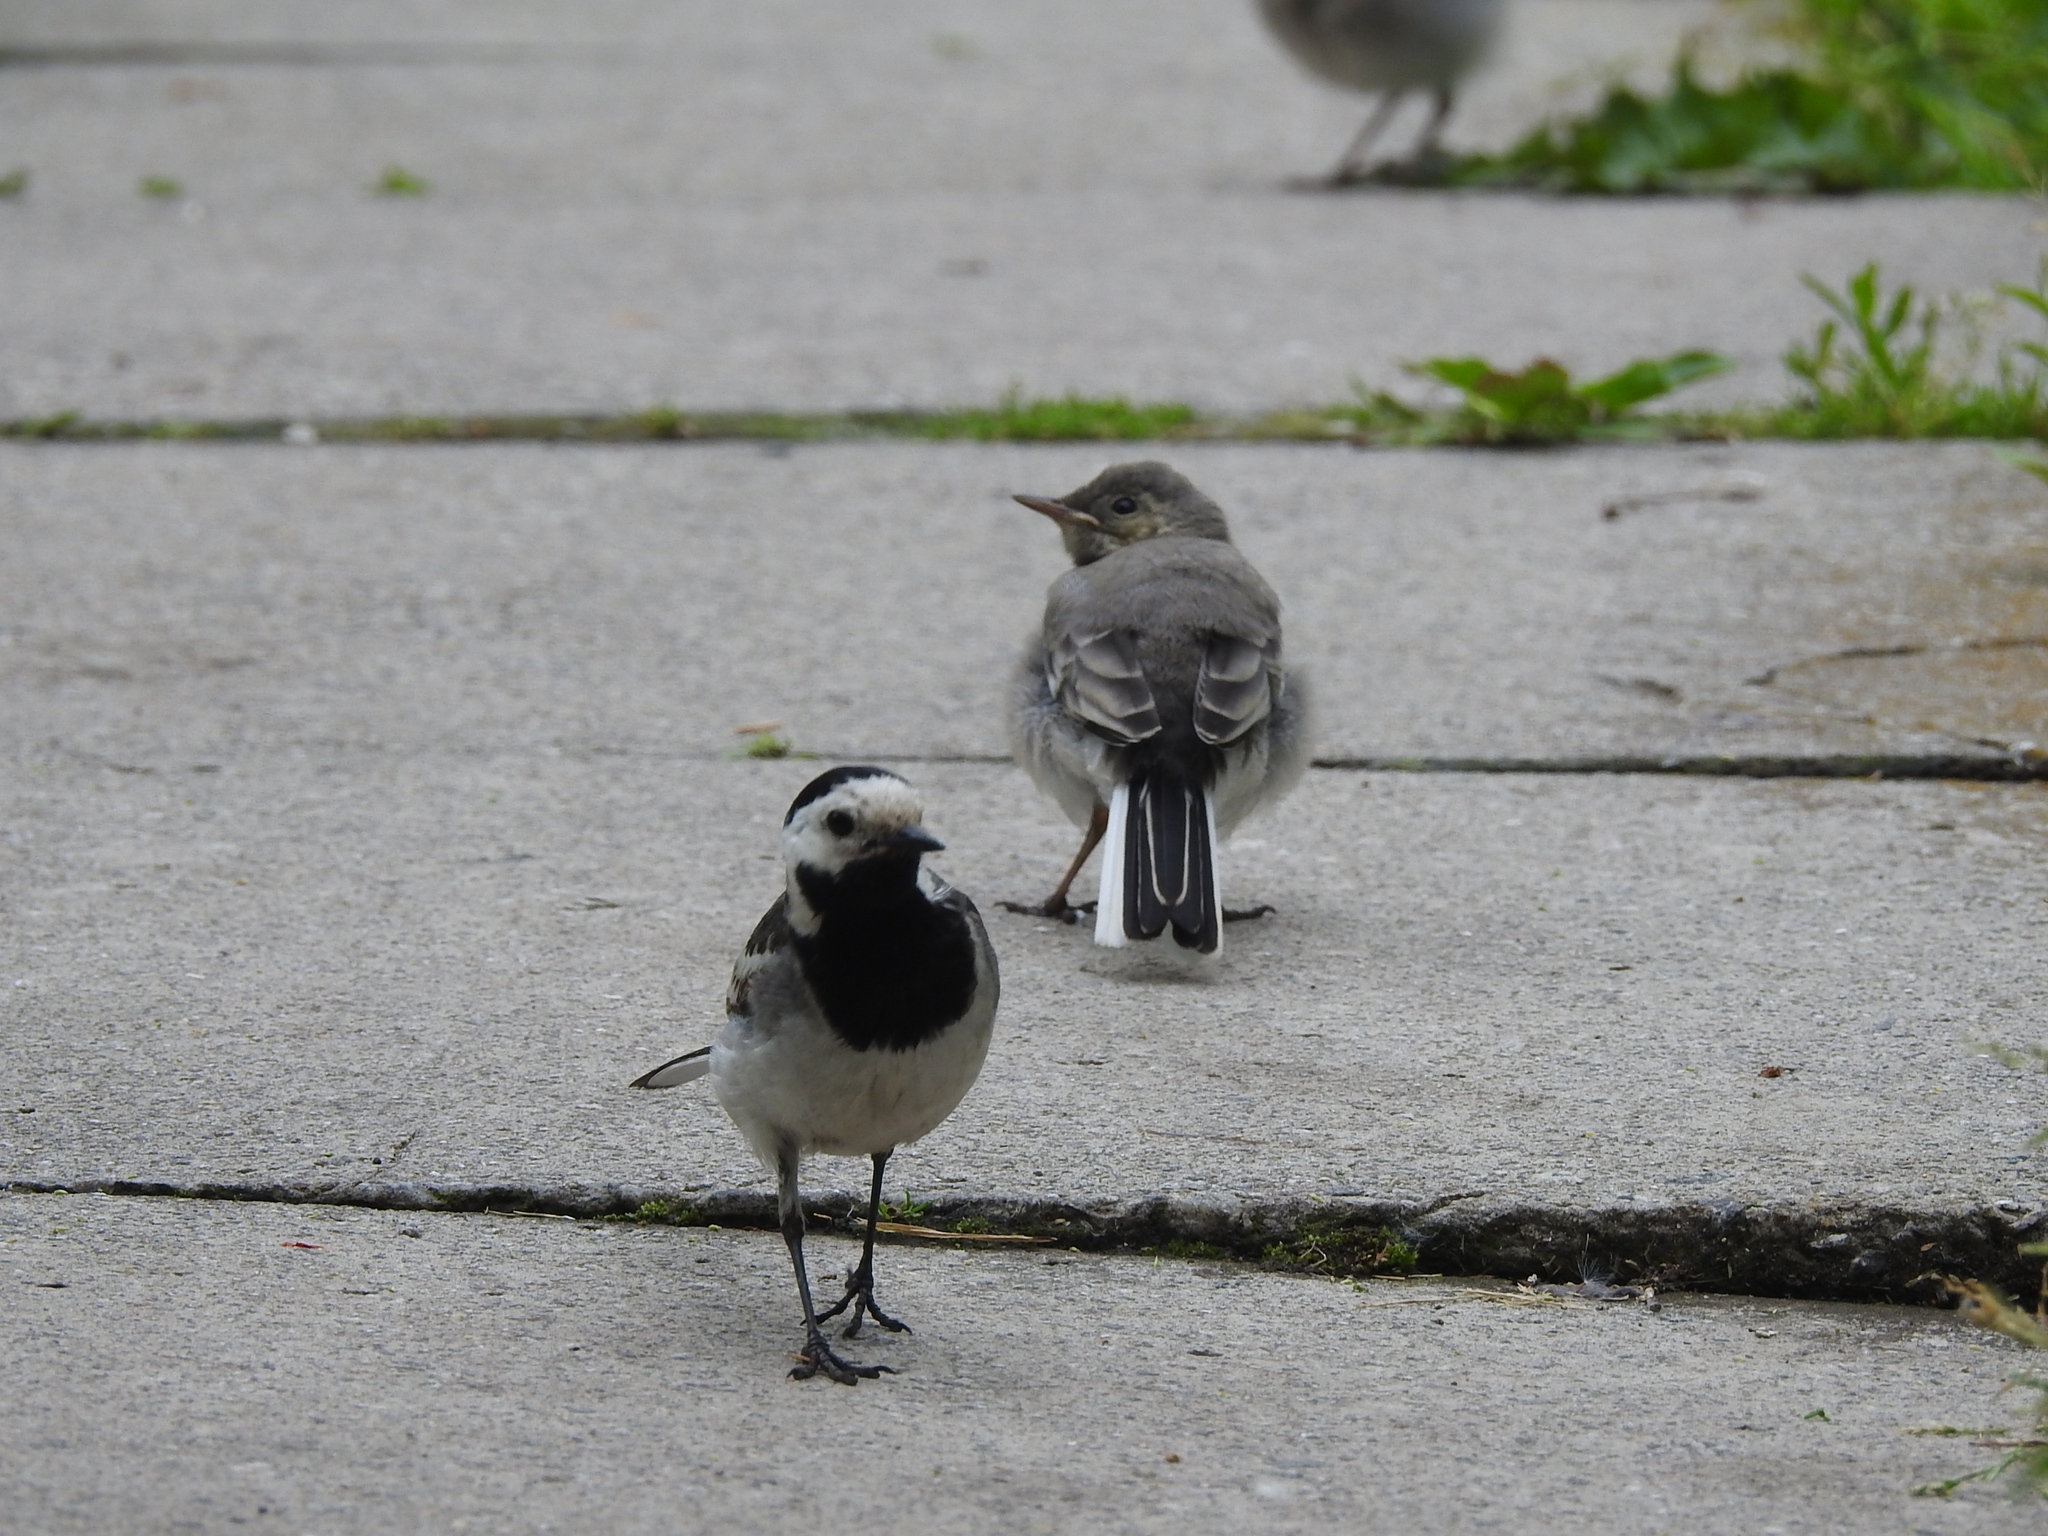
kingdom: Animalia
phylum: Chordata
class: Aves
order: Passeriformes
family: Motacillidae
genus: Motacilla
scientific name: Motacilla alba
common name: White wagtail
